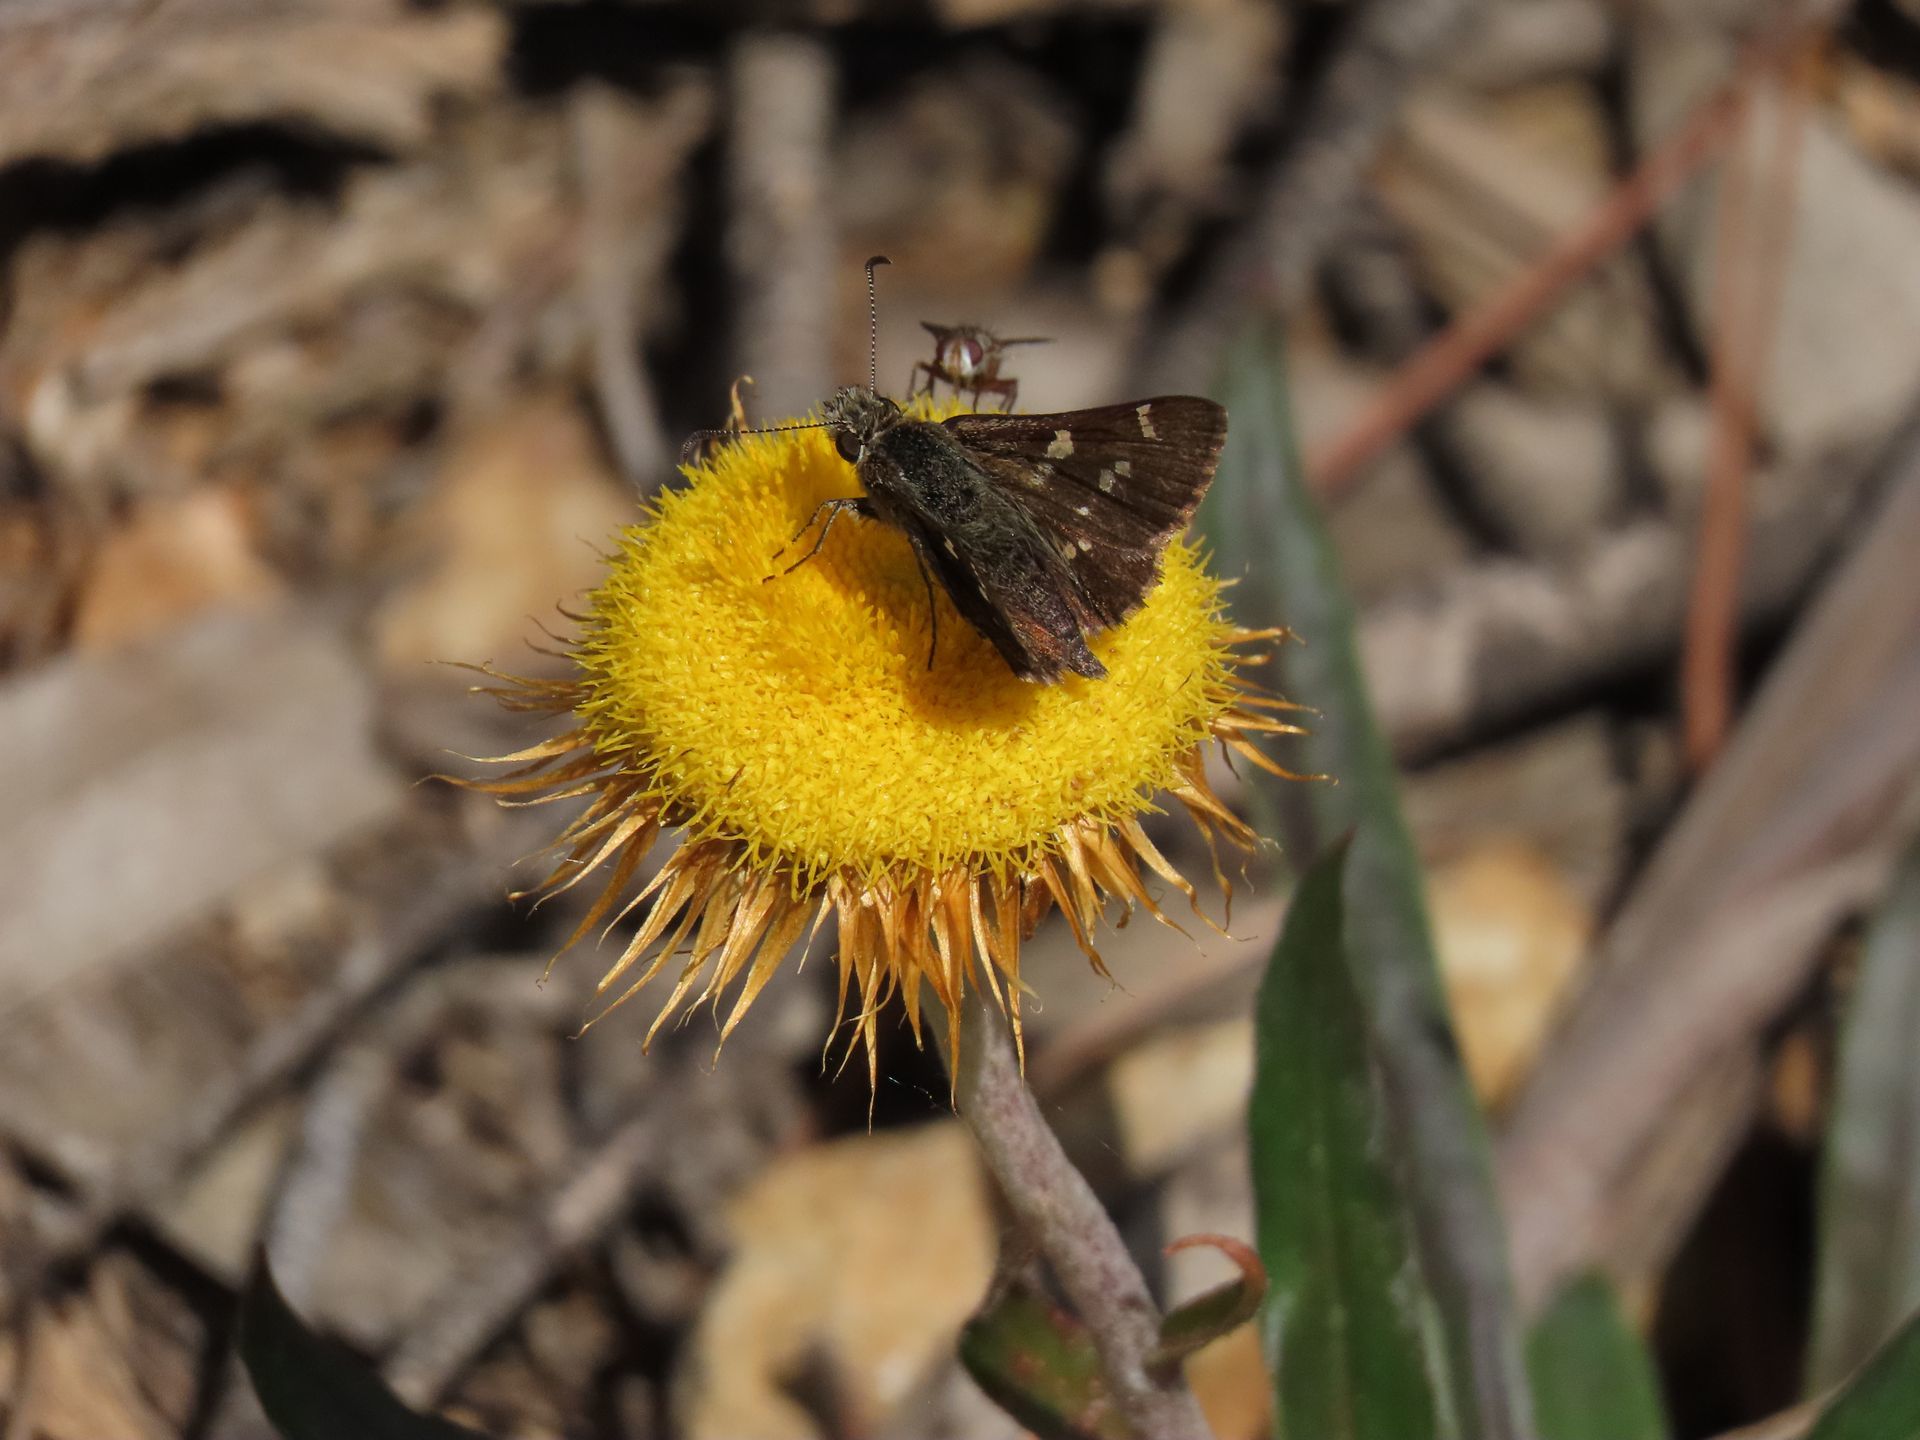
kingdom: Animalia
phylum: Arthropoda
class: Insecta
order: Lepidoptera
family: Hesperiidae
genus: Pasma
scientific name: Pasma tasmanicus
